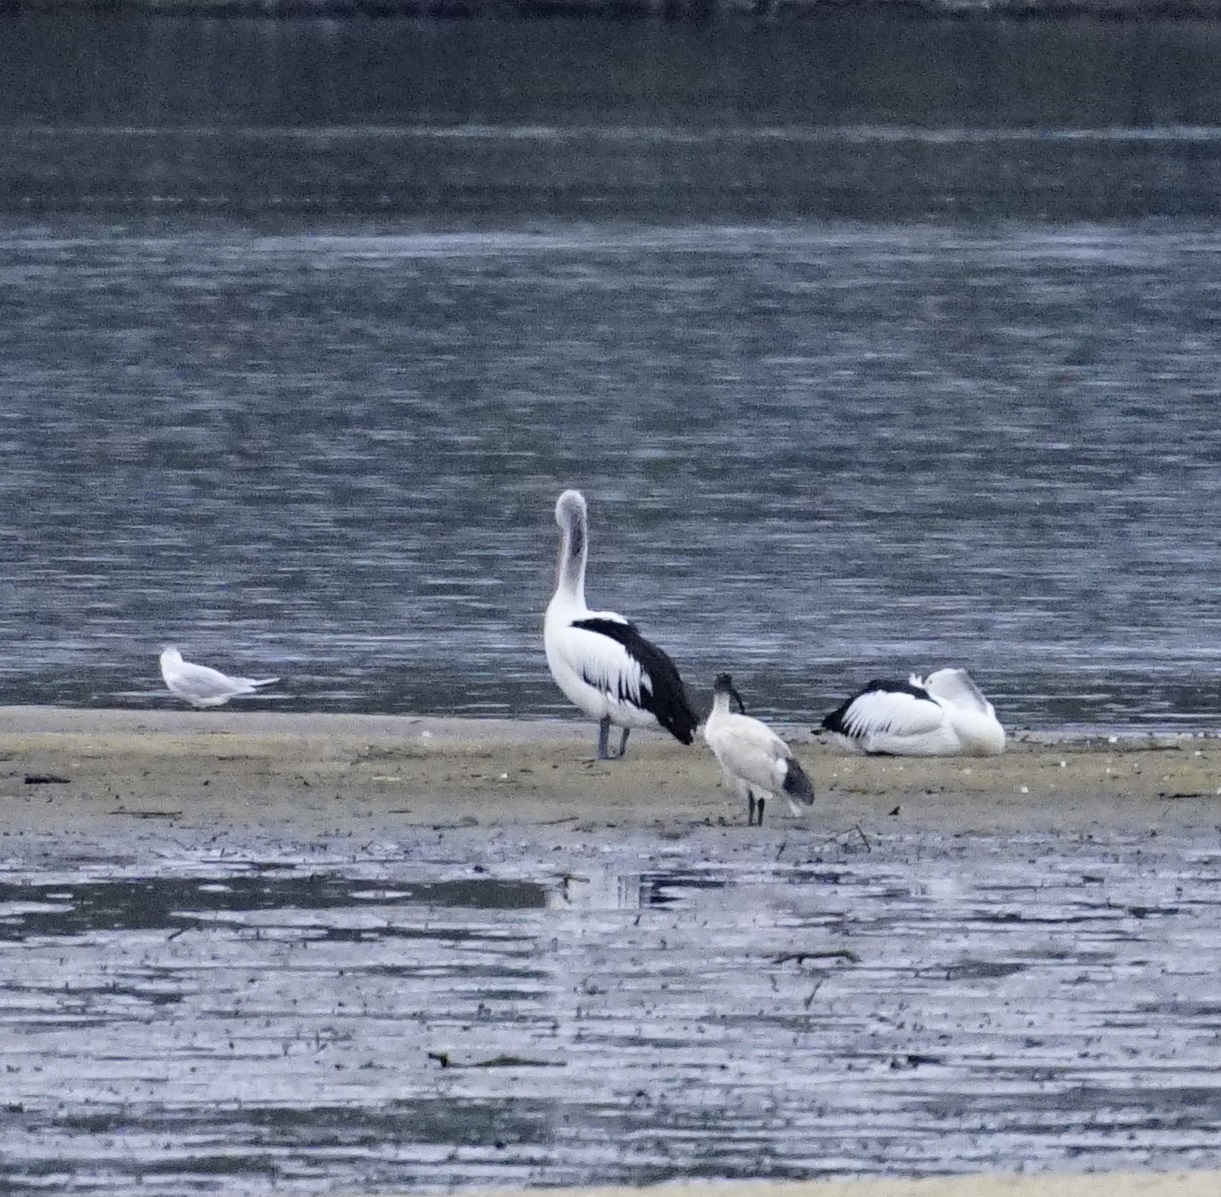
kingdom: Animalia
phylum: Chordata
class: Aves
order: Pelecaniformes
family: Pelecanidae
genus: Pelecanus
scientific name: Pelecanus conspicillatus
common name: Australian pelican
